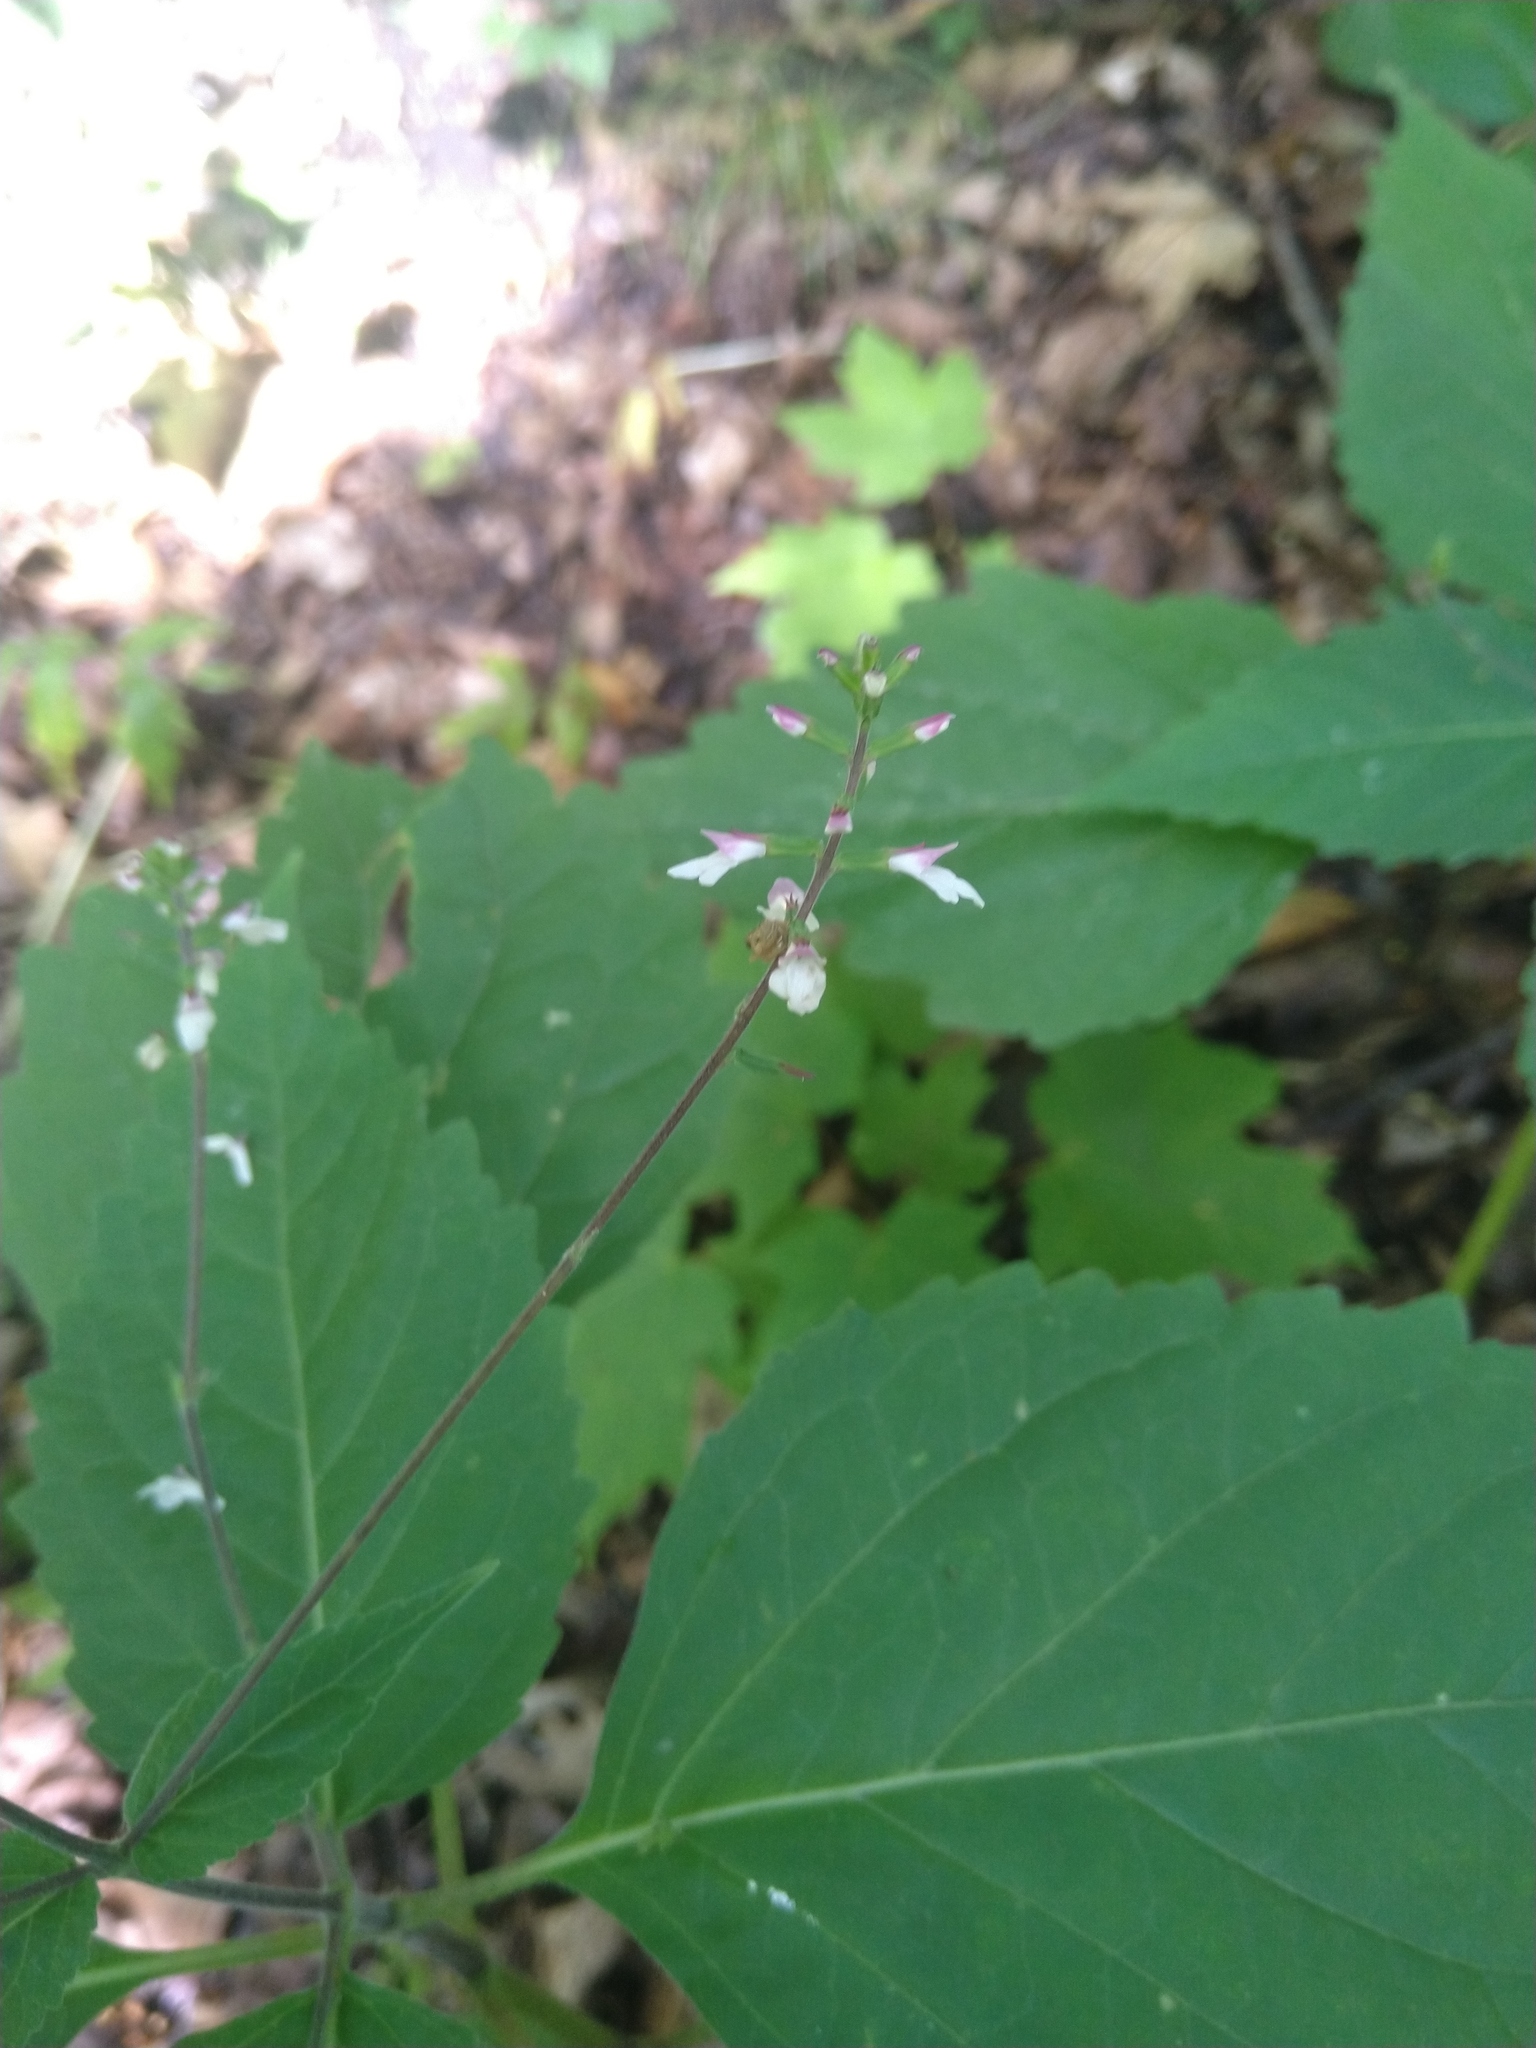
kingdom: Plantae
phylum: Tracheophyta
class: Magnoliopsida
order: Lamiales
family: Phrymaceae
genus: Phryma
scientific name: Phryma leptostachya
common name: American lopseed
